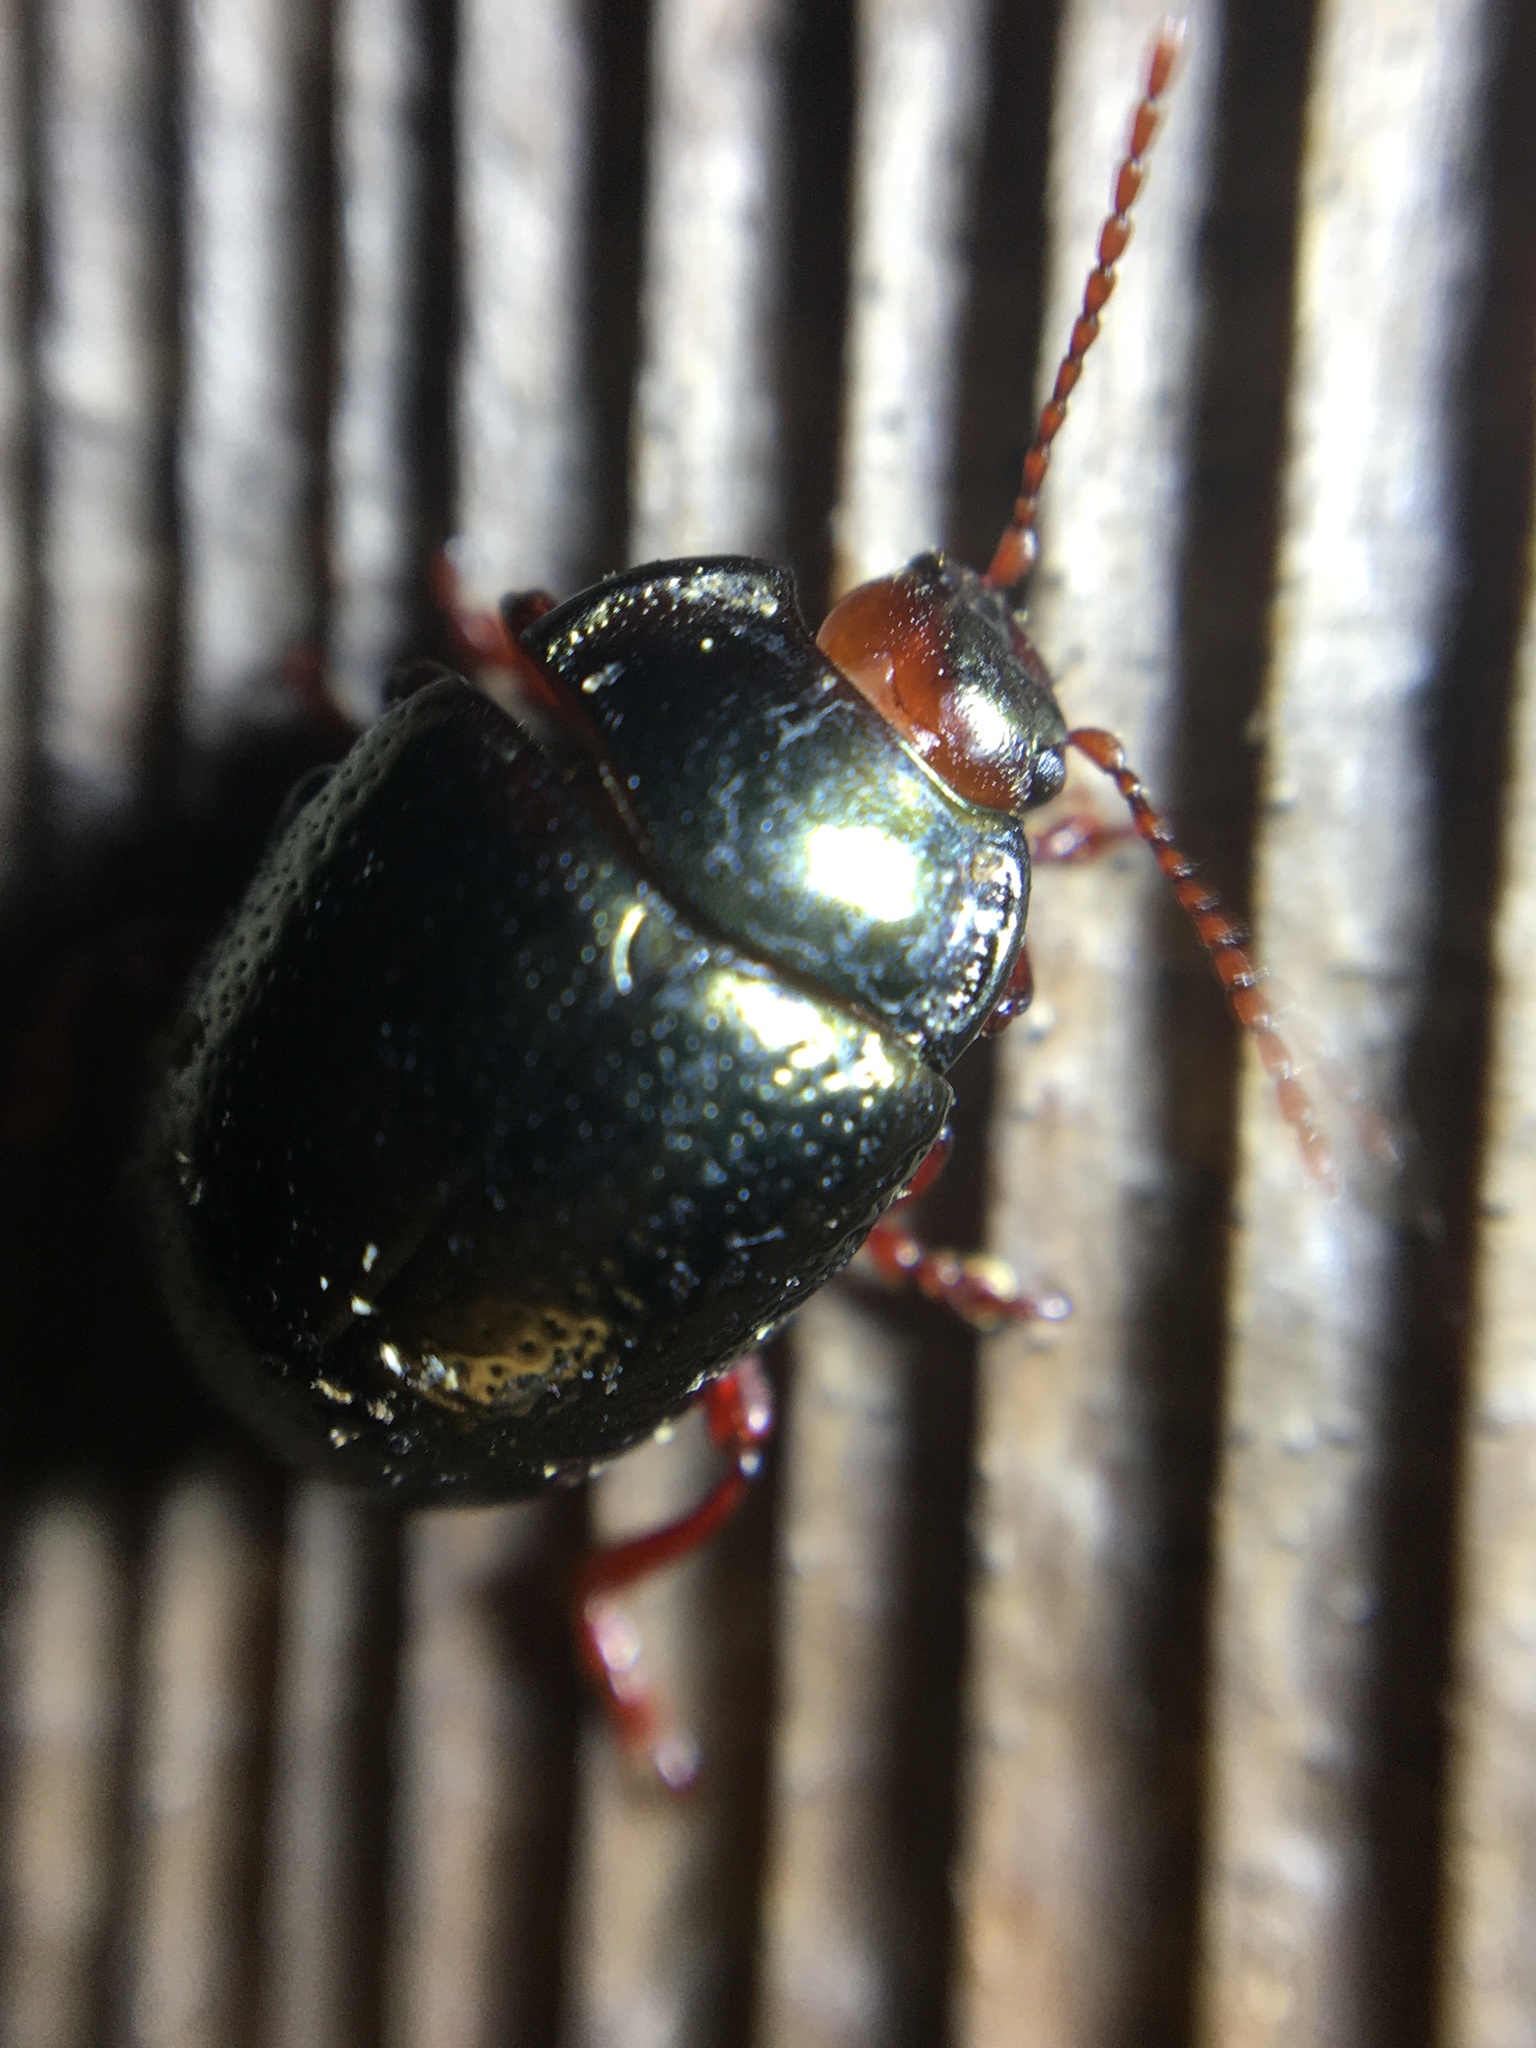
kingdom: Animalia
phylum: Arthropoda
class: Insecta
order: Coleoptera
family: Chrysomelidae
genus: Chrysolina
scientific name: Chrysolina bankii
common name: Leaf beetle
